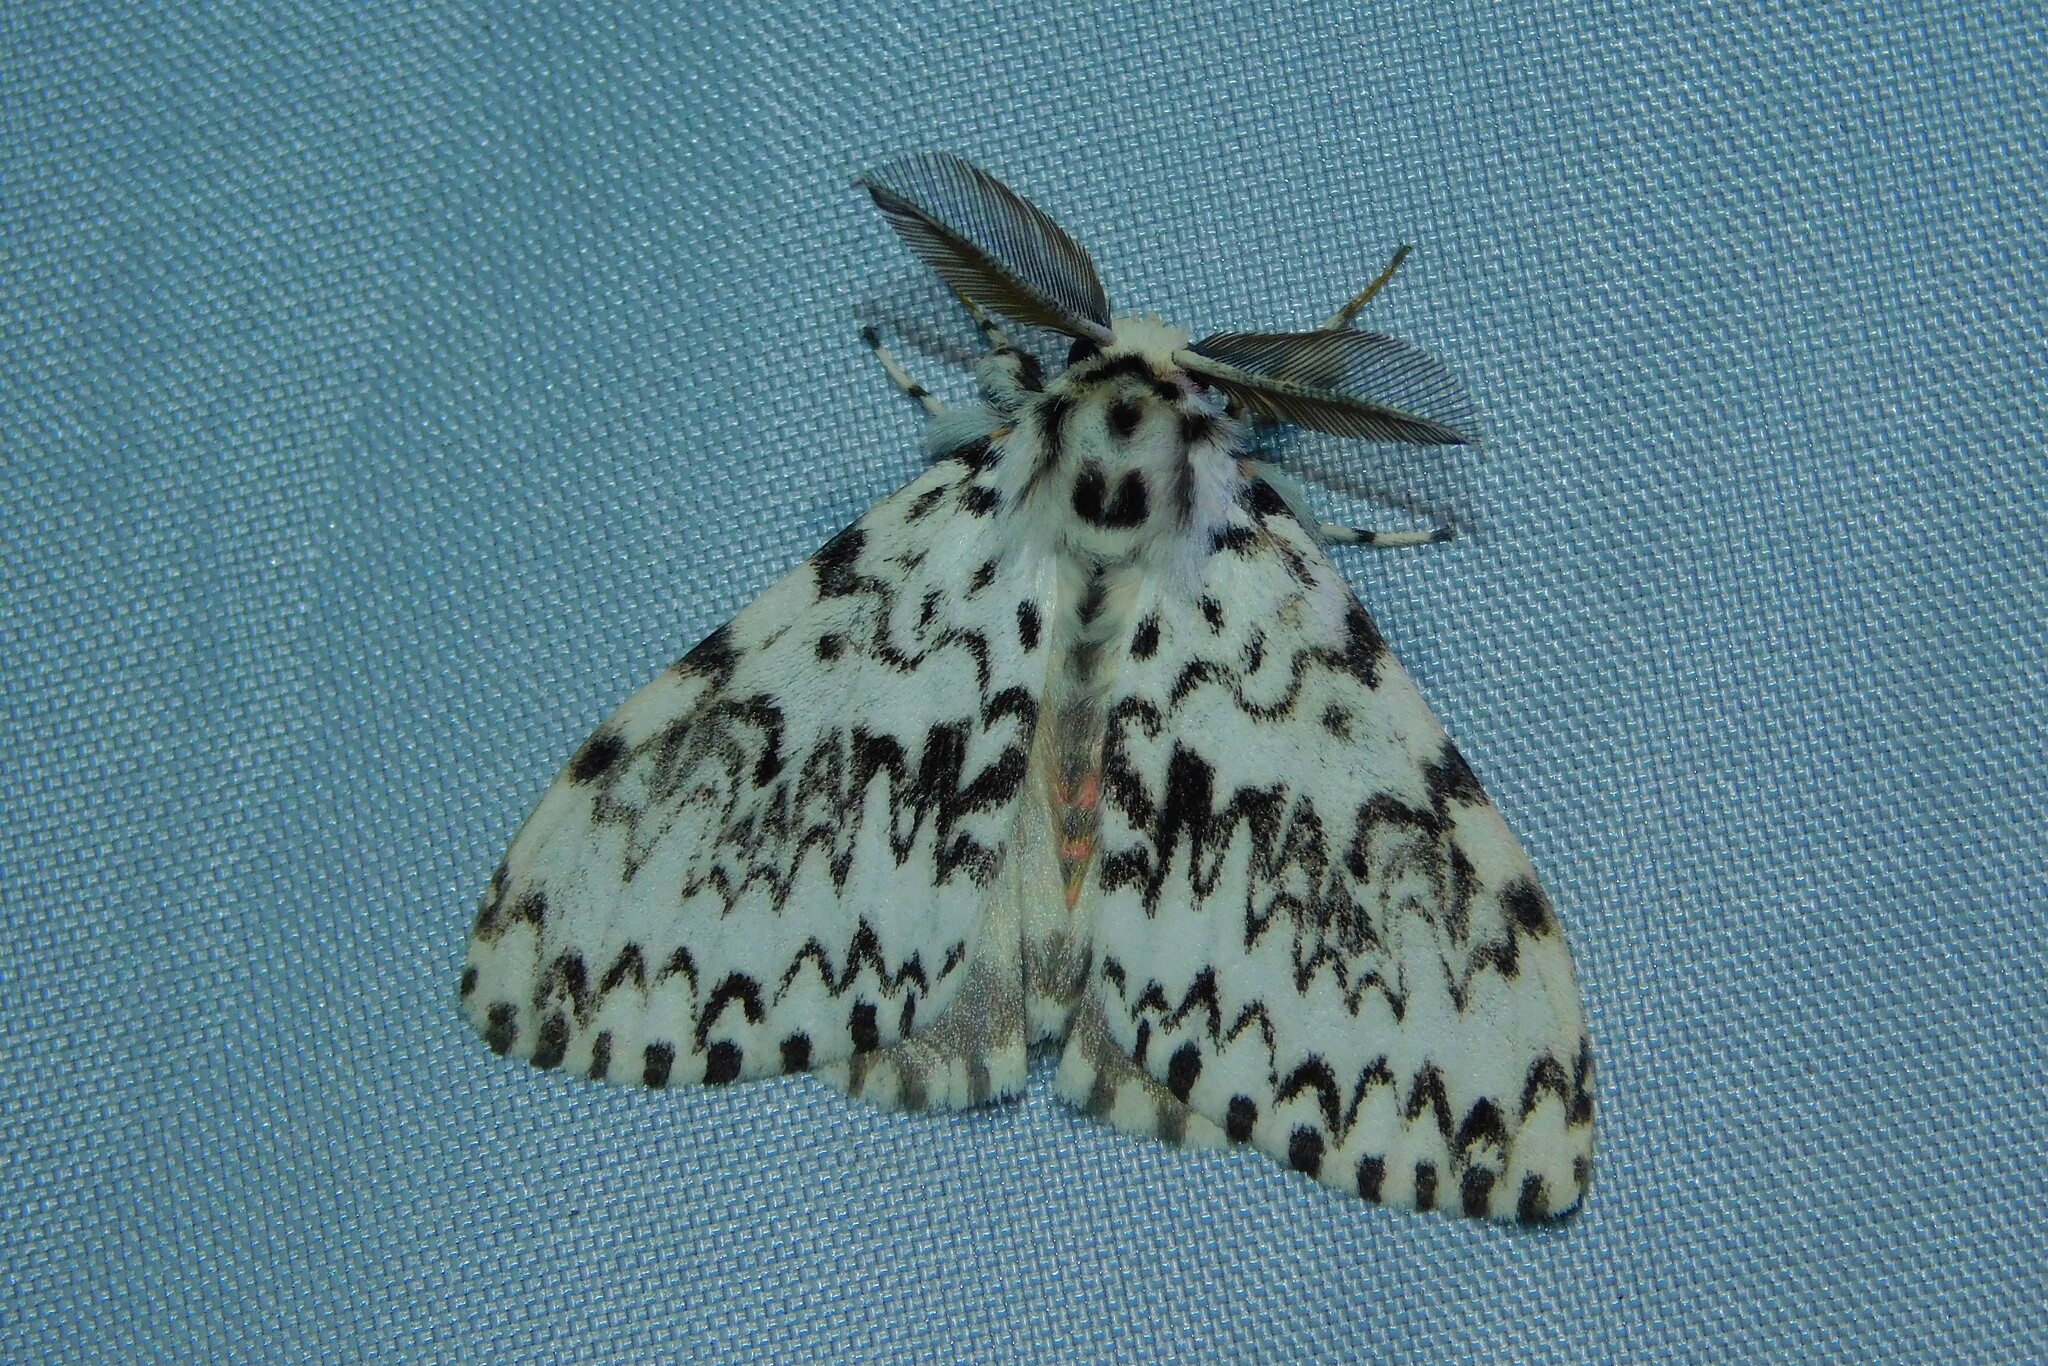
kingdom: Animalia
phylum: Arthropoda
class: Insecta
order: Lepidoptera
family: Erebidae
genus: Lymantria
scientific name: Lymantria monacha
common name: Black arches
